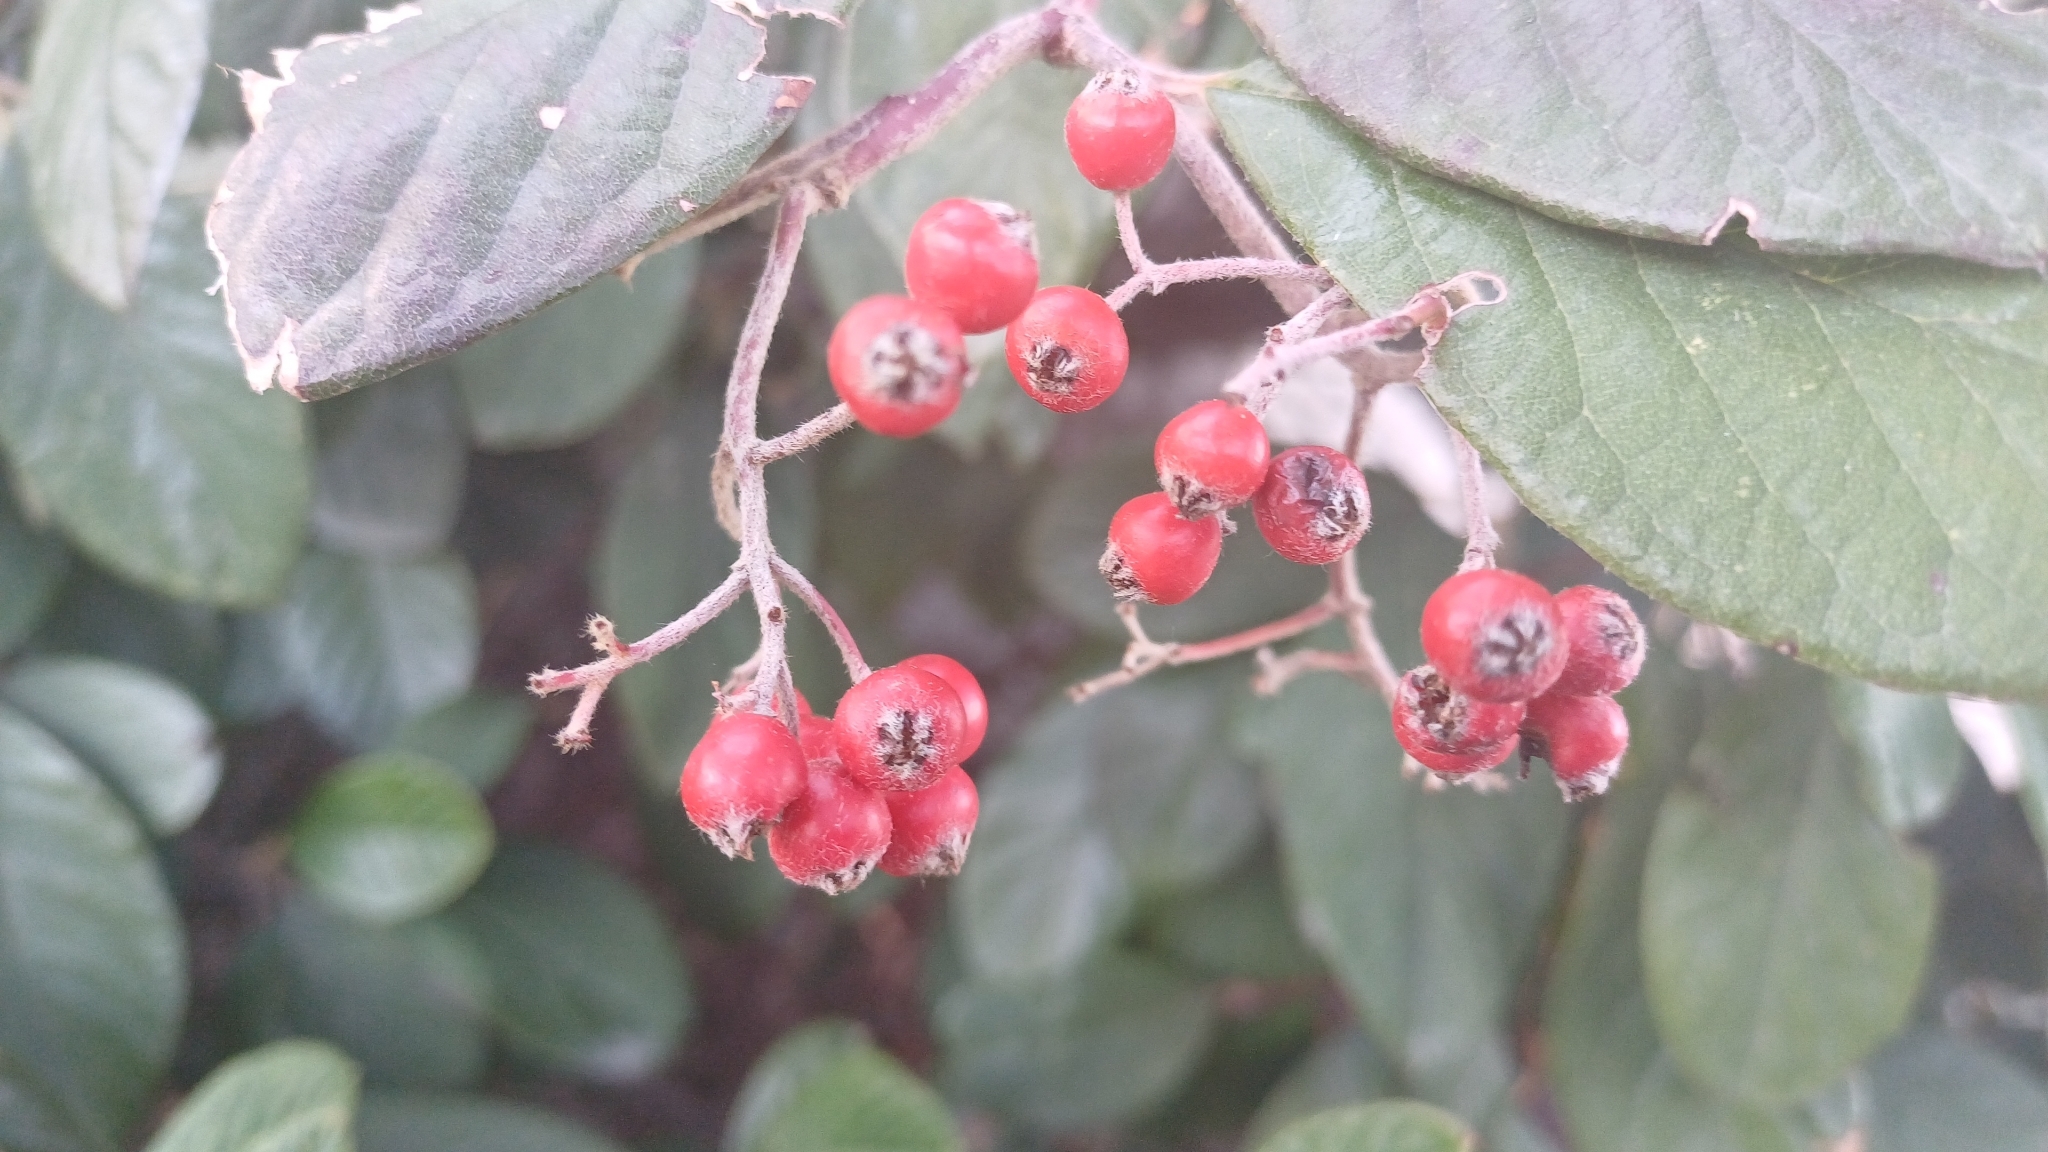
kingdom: Plantae
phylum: Tracheophyta
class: Magnoliopsida
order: Rosales
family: Rosaceae
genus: Cotoneaster
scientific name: Cotoneaster coriaceus
